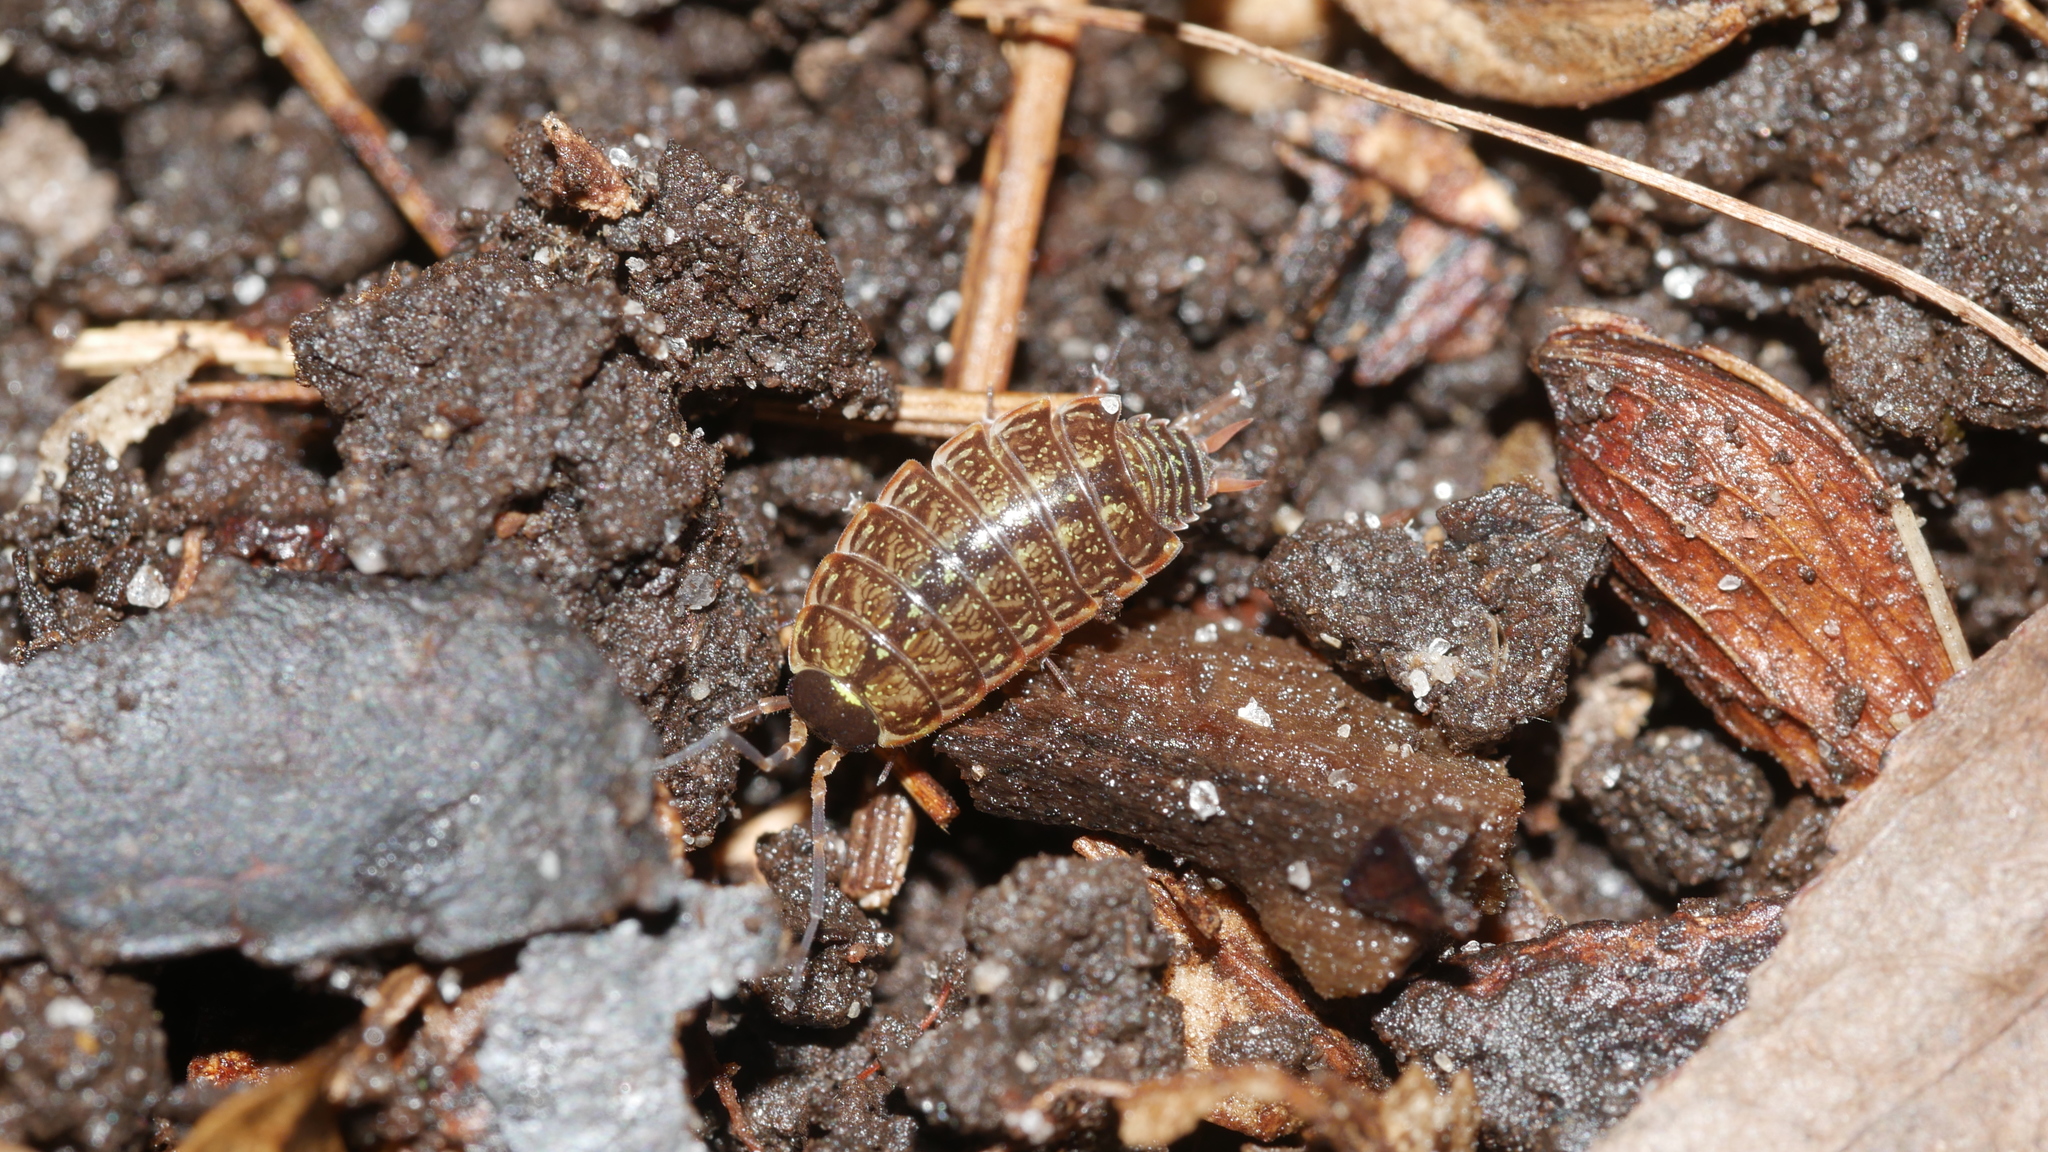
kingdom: Animalia
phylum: Arthropoda
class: Malacostraca
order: Isopoda
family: Philosciidae
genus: Philoscia
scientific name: Philoscia muscorum
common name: Common striped woodlouse
